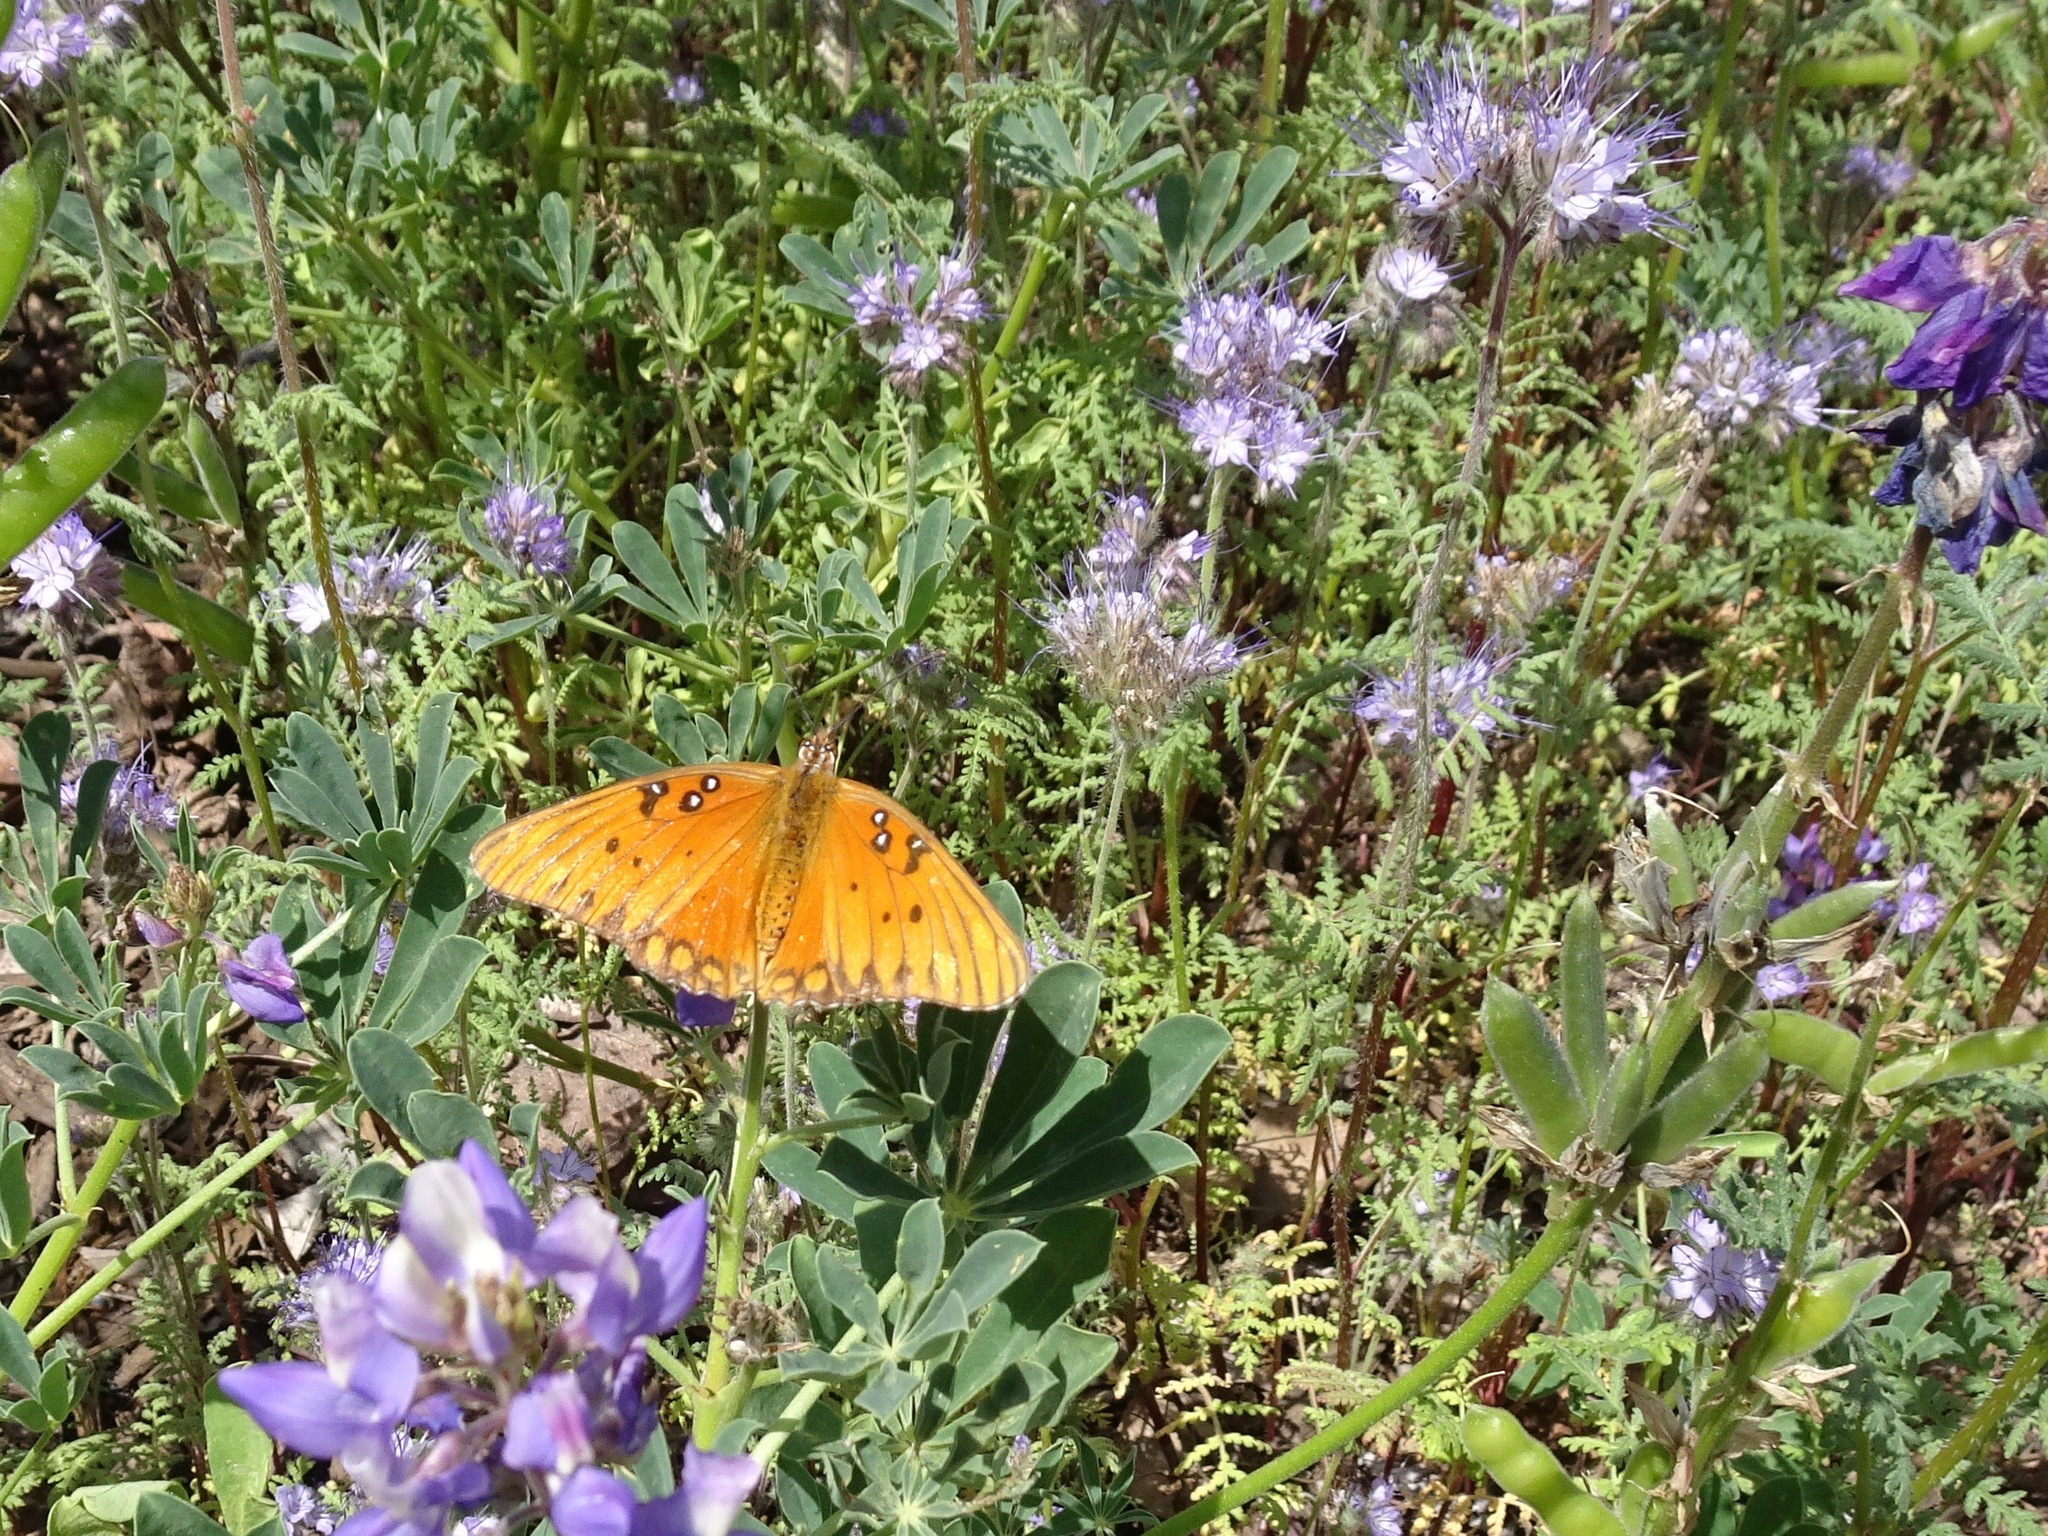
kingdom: Animalia
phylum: Arthropoda
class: Insecta
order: Lepidoptera
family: Nymphalidae
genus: Dione
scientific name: Dione vanillae
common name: Gulf fritillary
